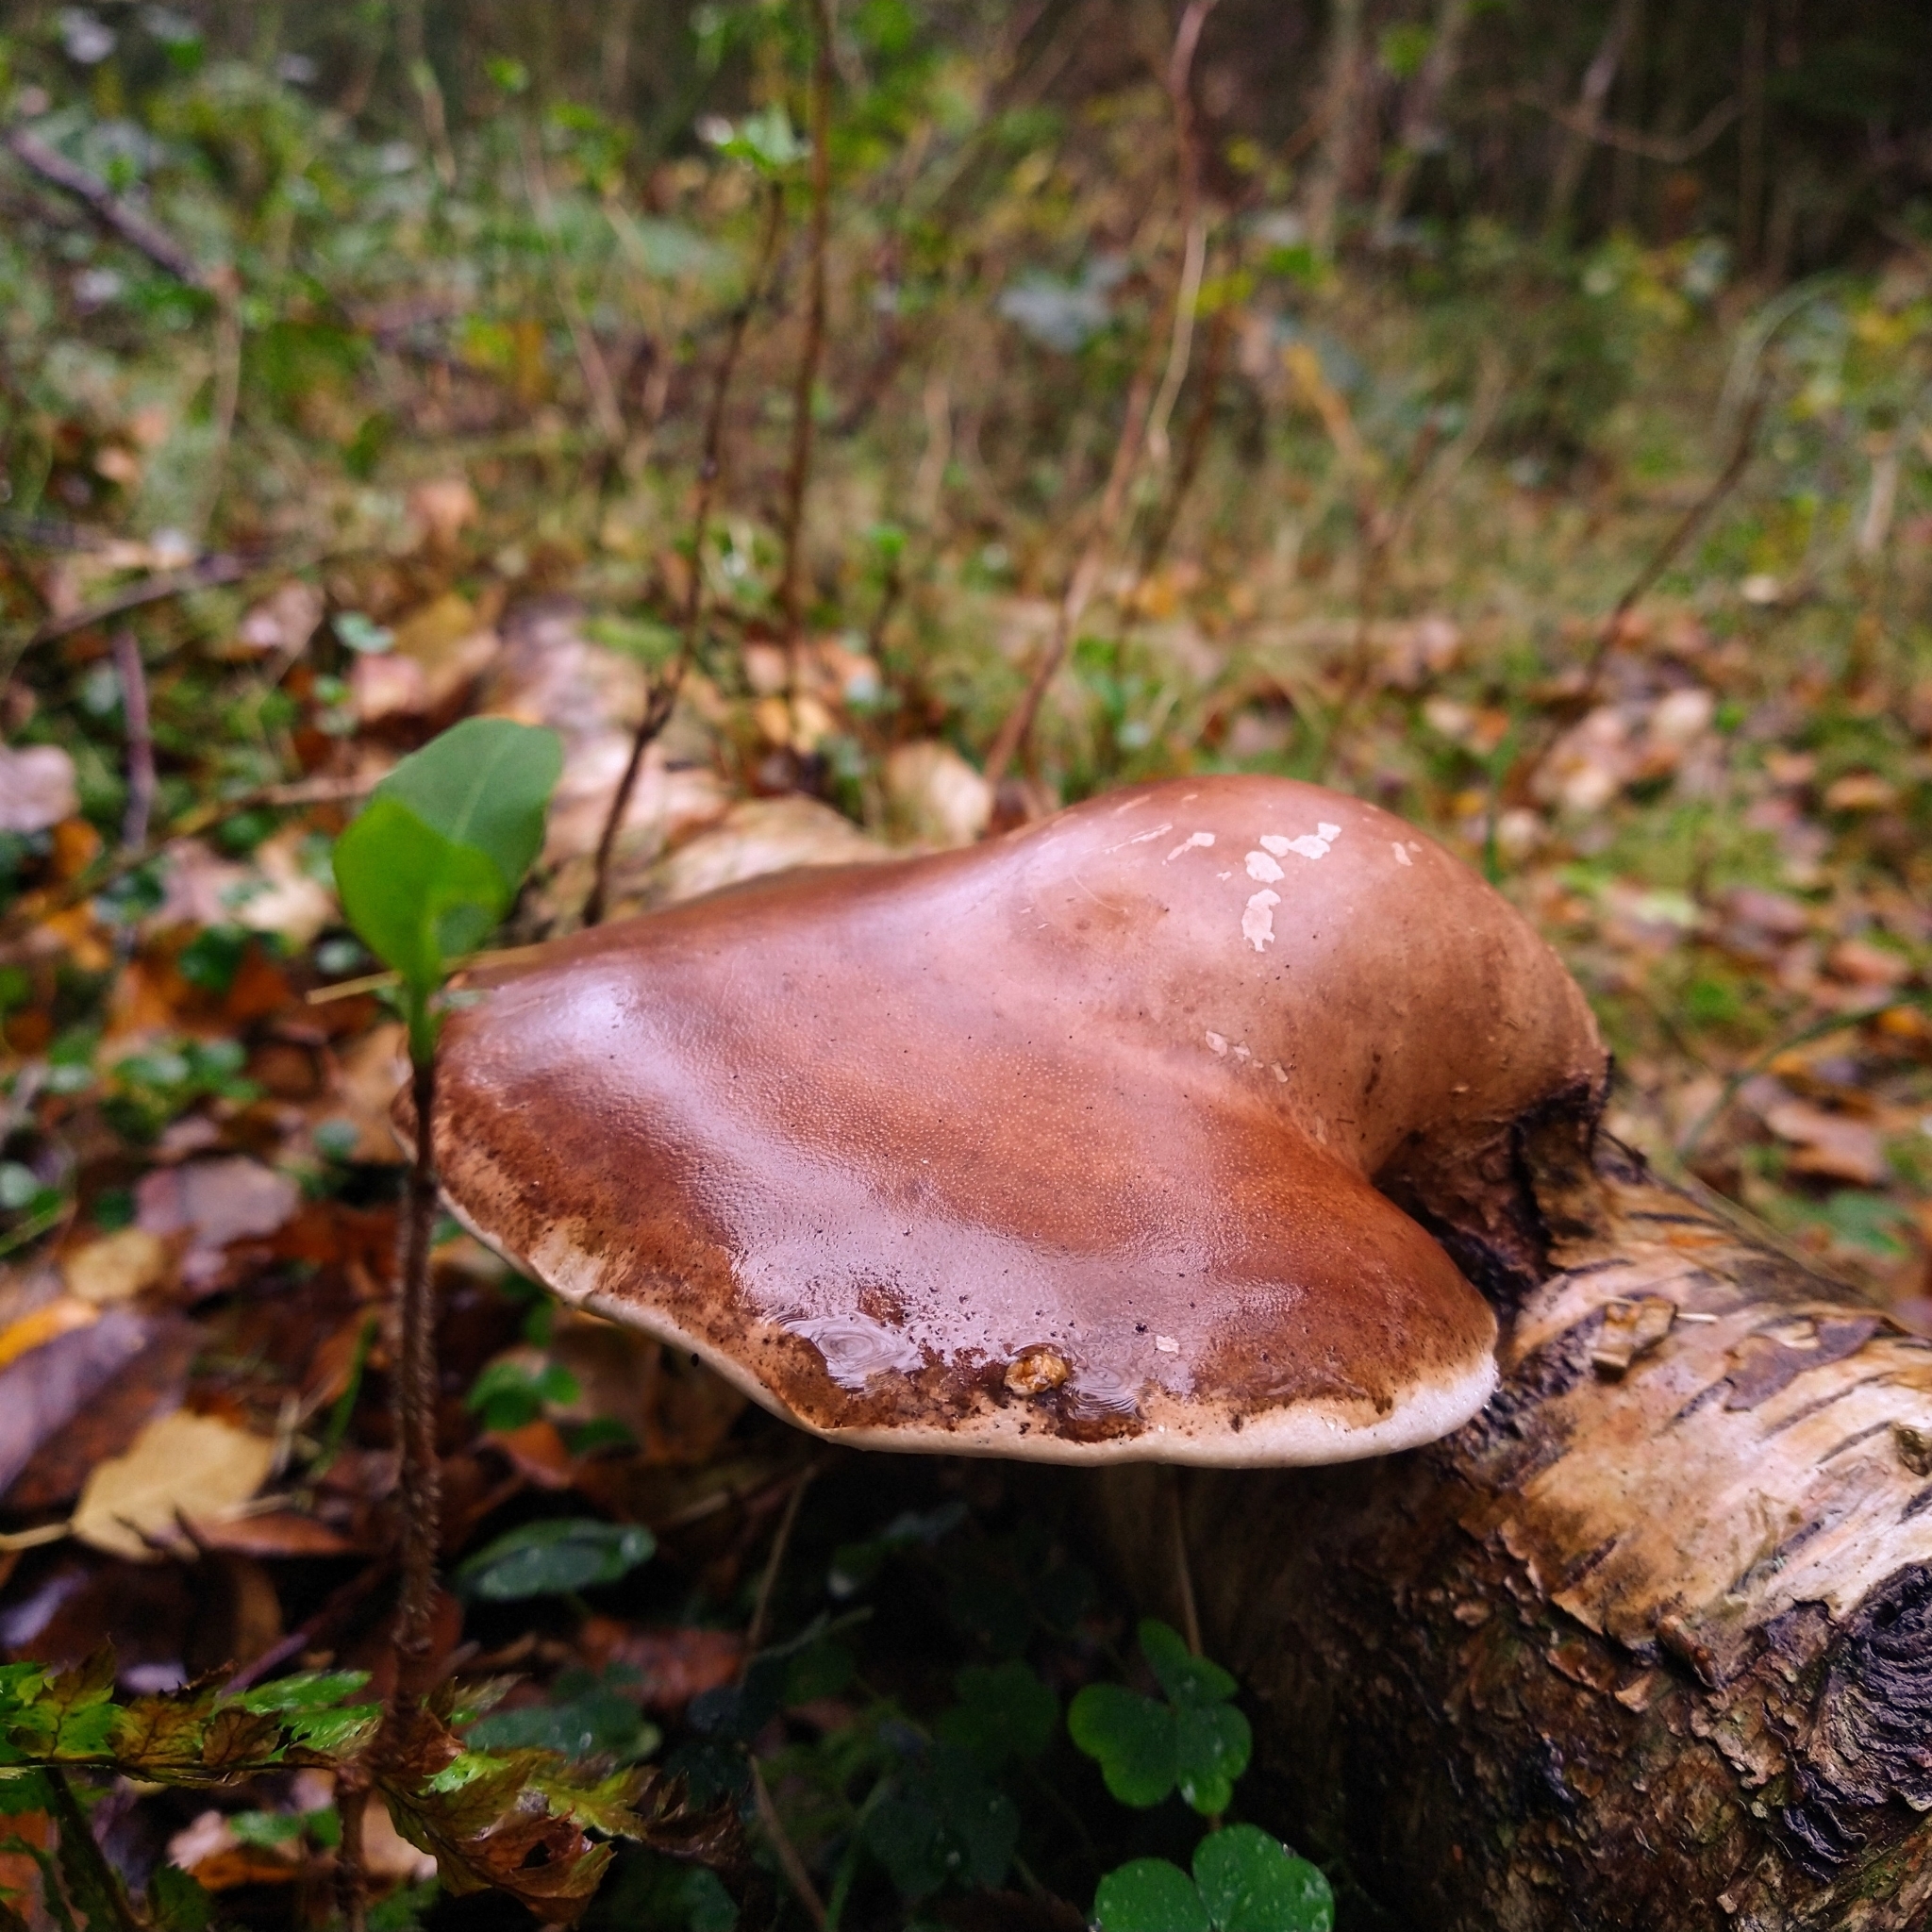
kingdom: Fungi
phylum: Basidiomycota
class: Agaricomycetes
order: Polyporales
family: Fomitopsidaceae
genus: Fomitopsis
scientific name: Fomitopsis betulina
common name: Birch polypore
